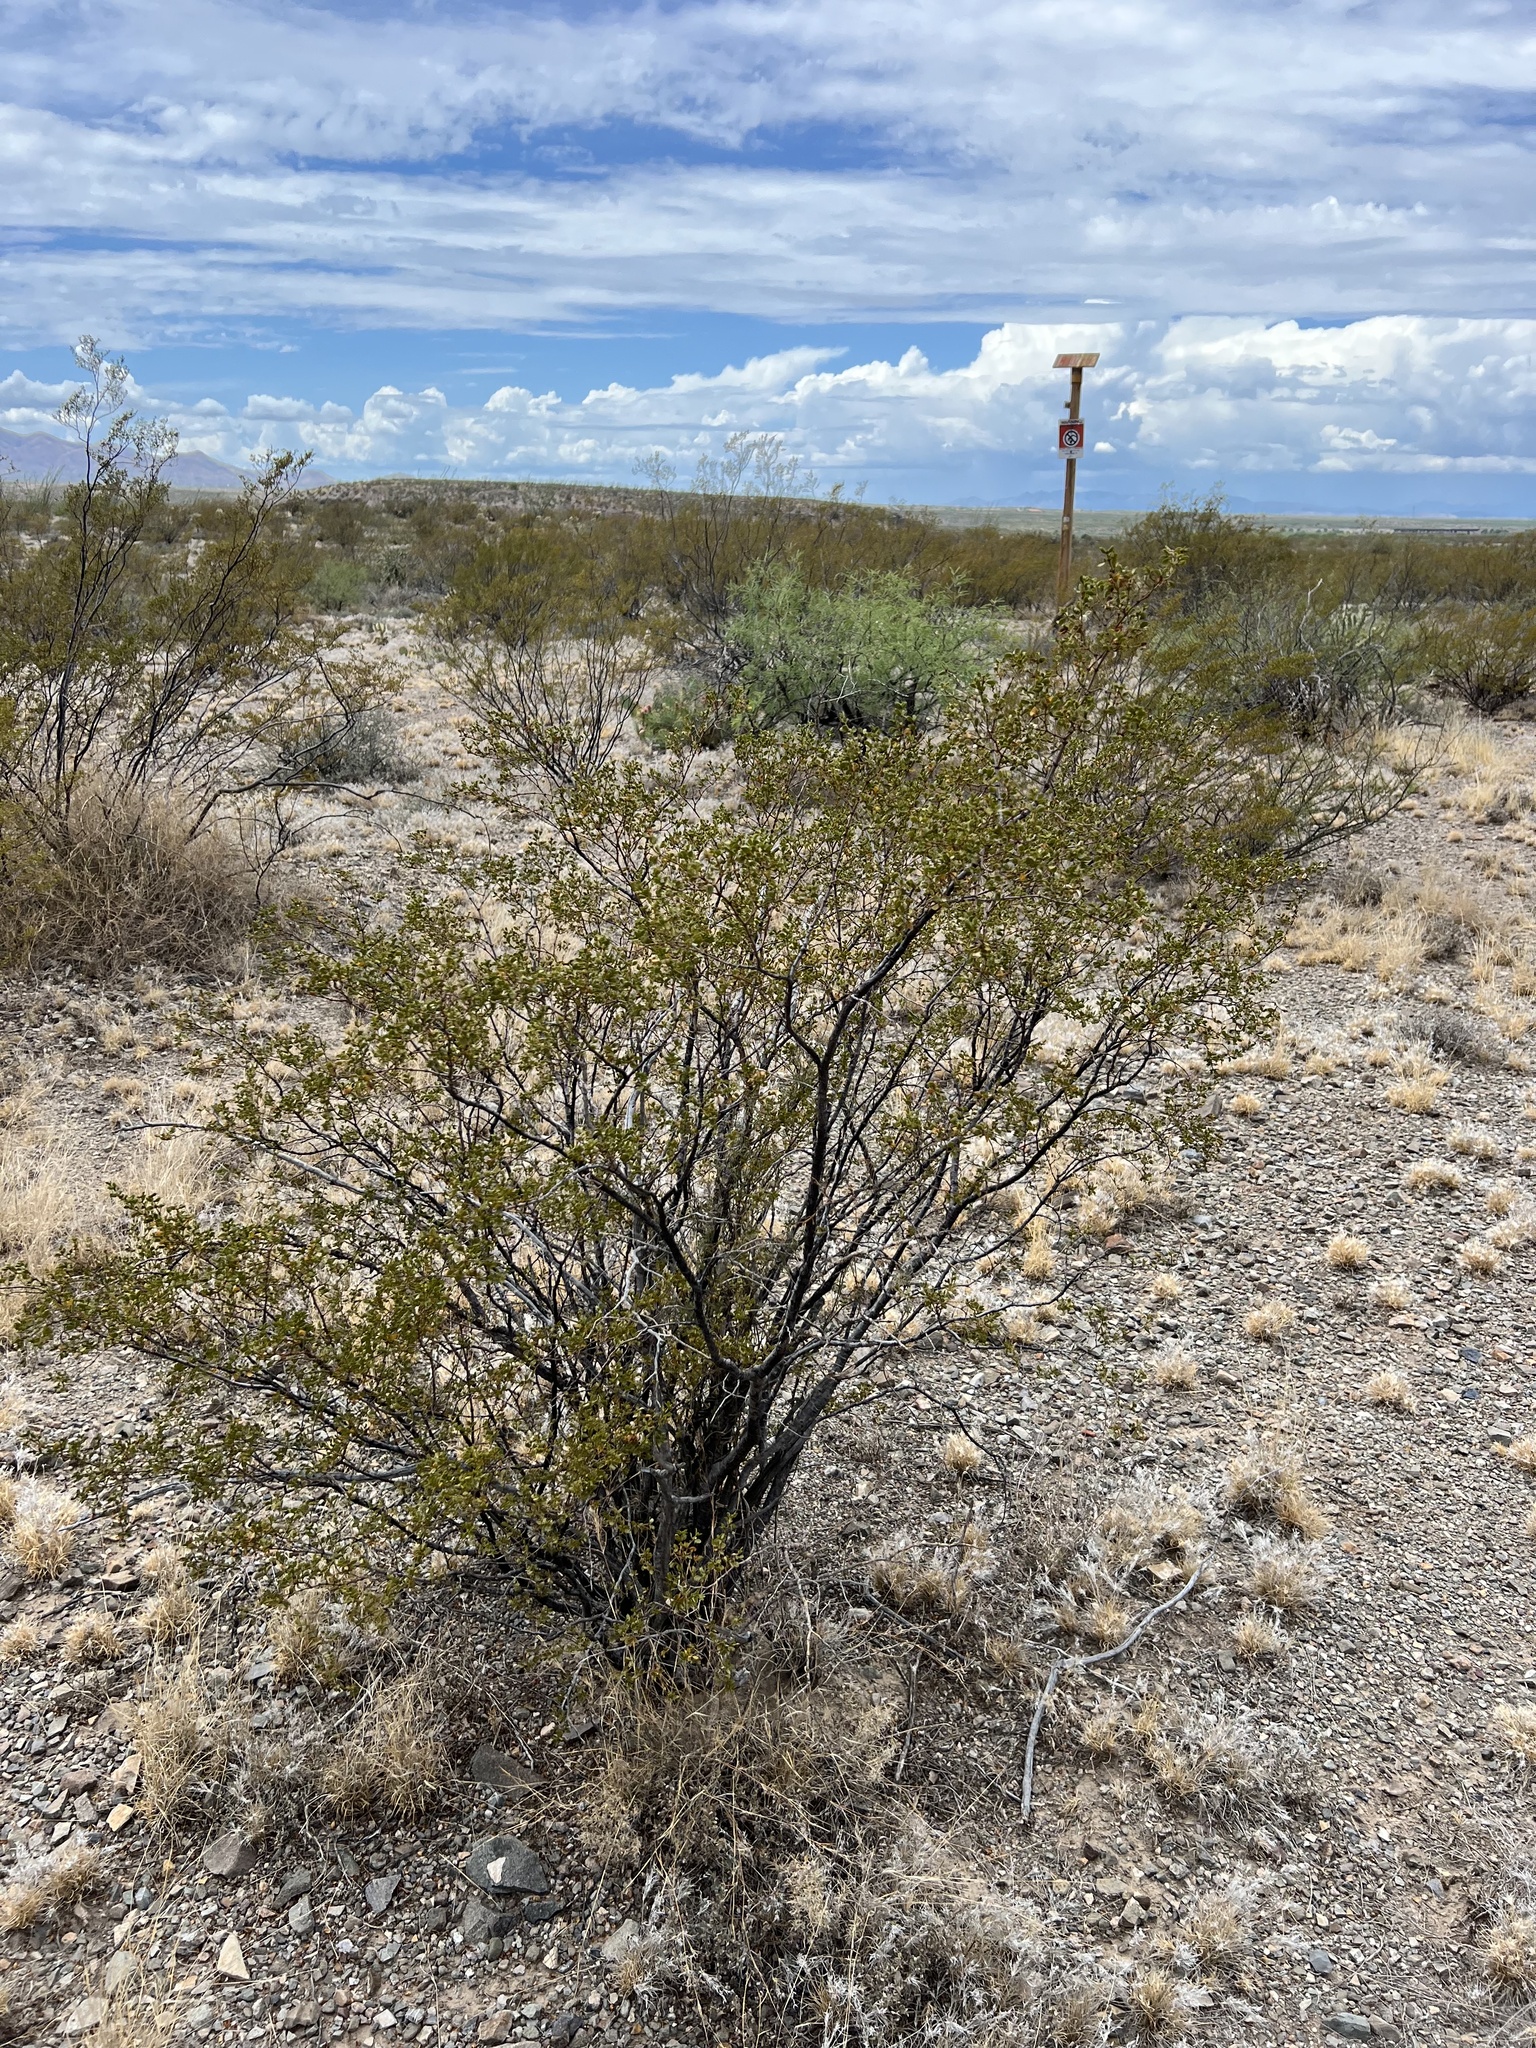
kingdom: Plantae
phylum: Tracheophyta
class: Magnoliopsida
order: Zygophyllales
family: Zygophyllaceae
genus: Larrea
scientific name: Larrea tridentata
